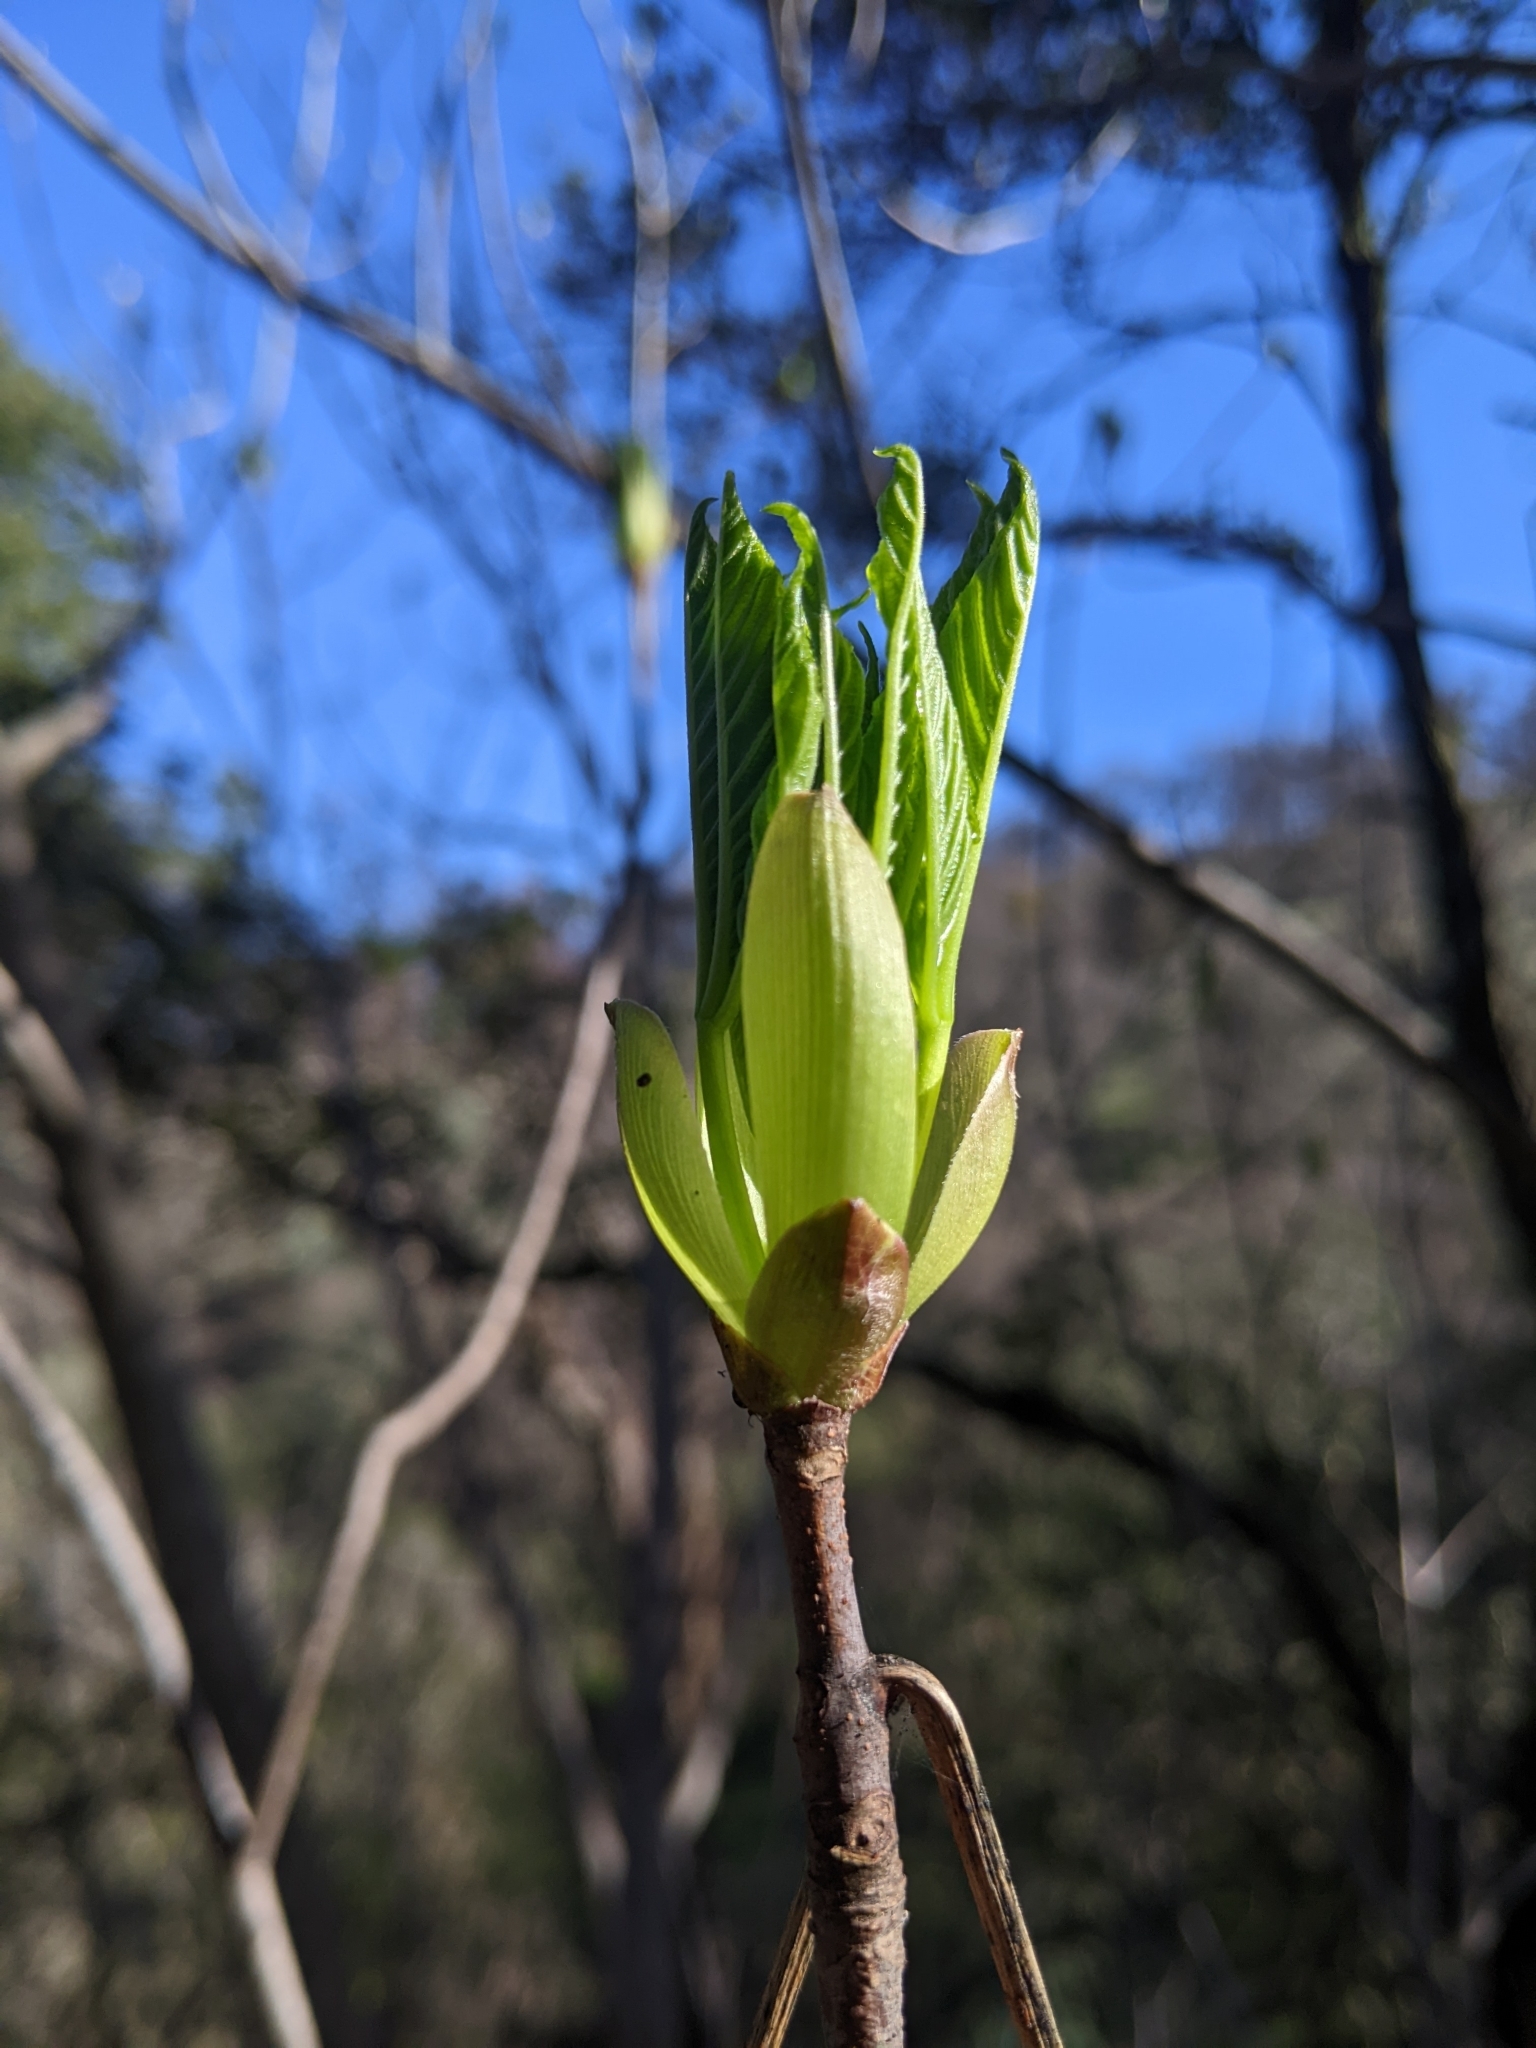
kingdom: Plantae
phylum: Tracheophyta
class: Magnoliopsida
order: Sapindales
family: Sapindaceae
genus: Aesculus
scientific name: Aesculus californica
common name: California buckeye
